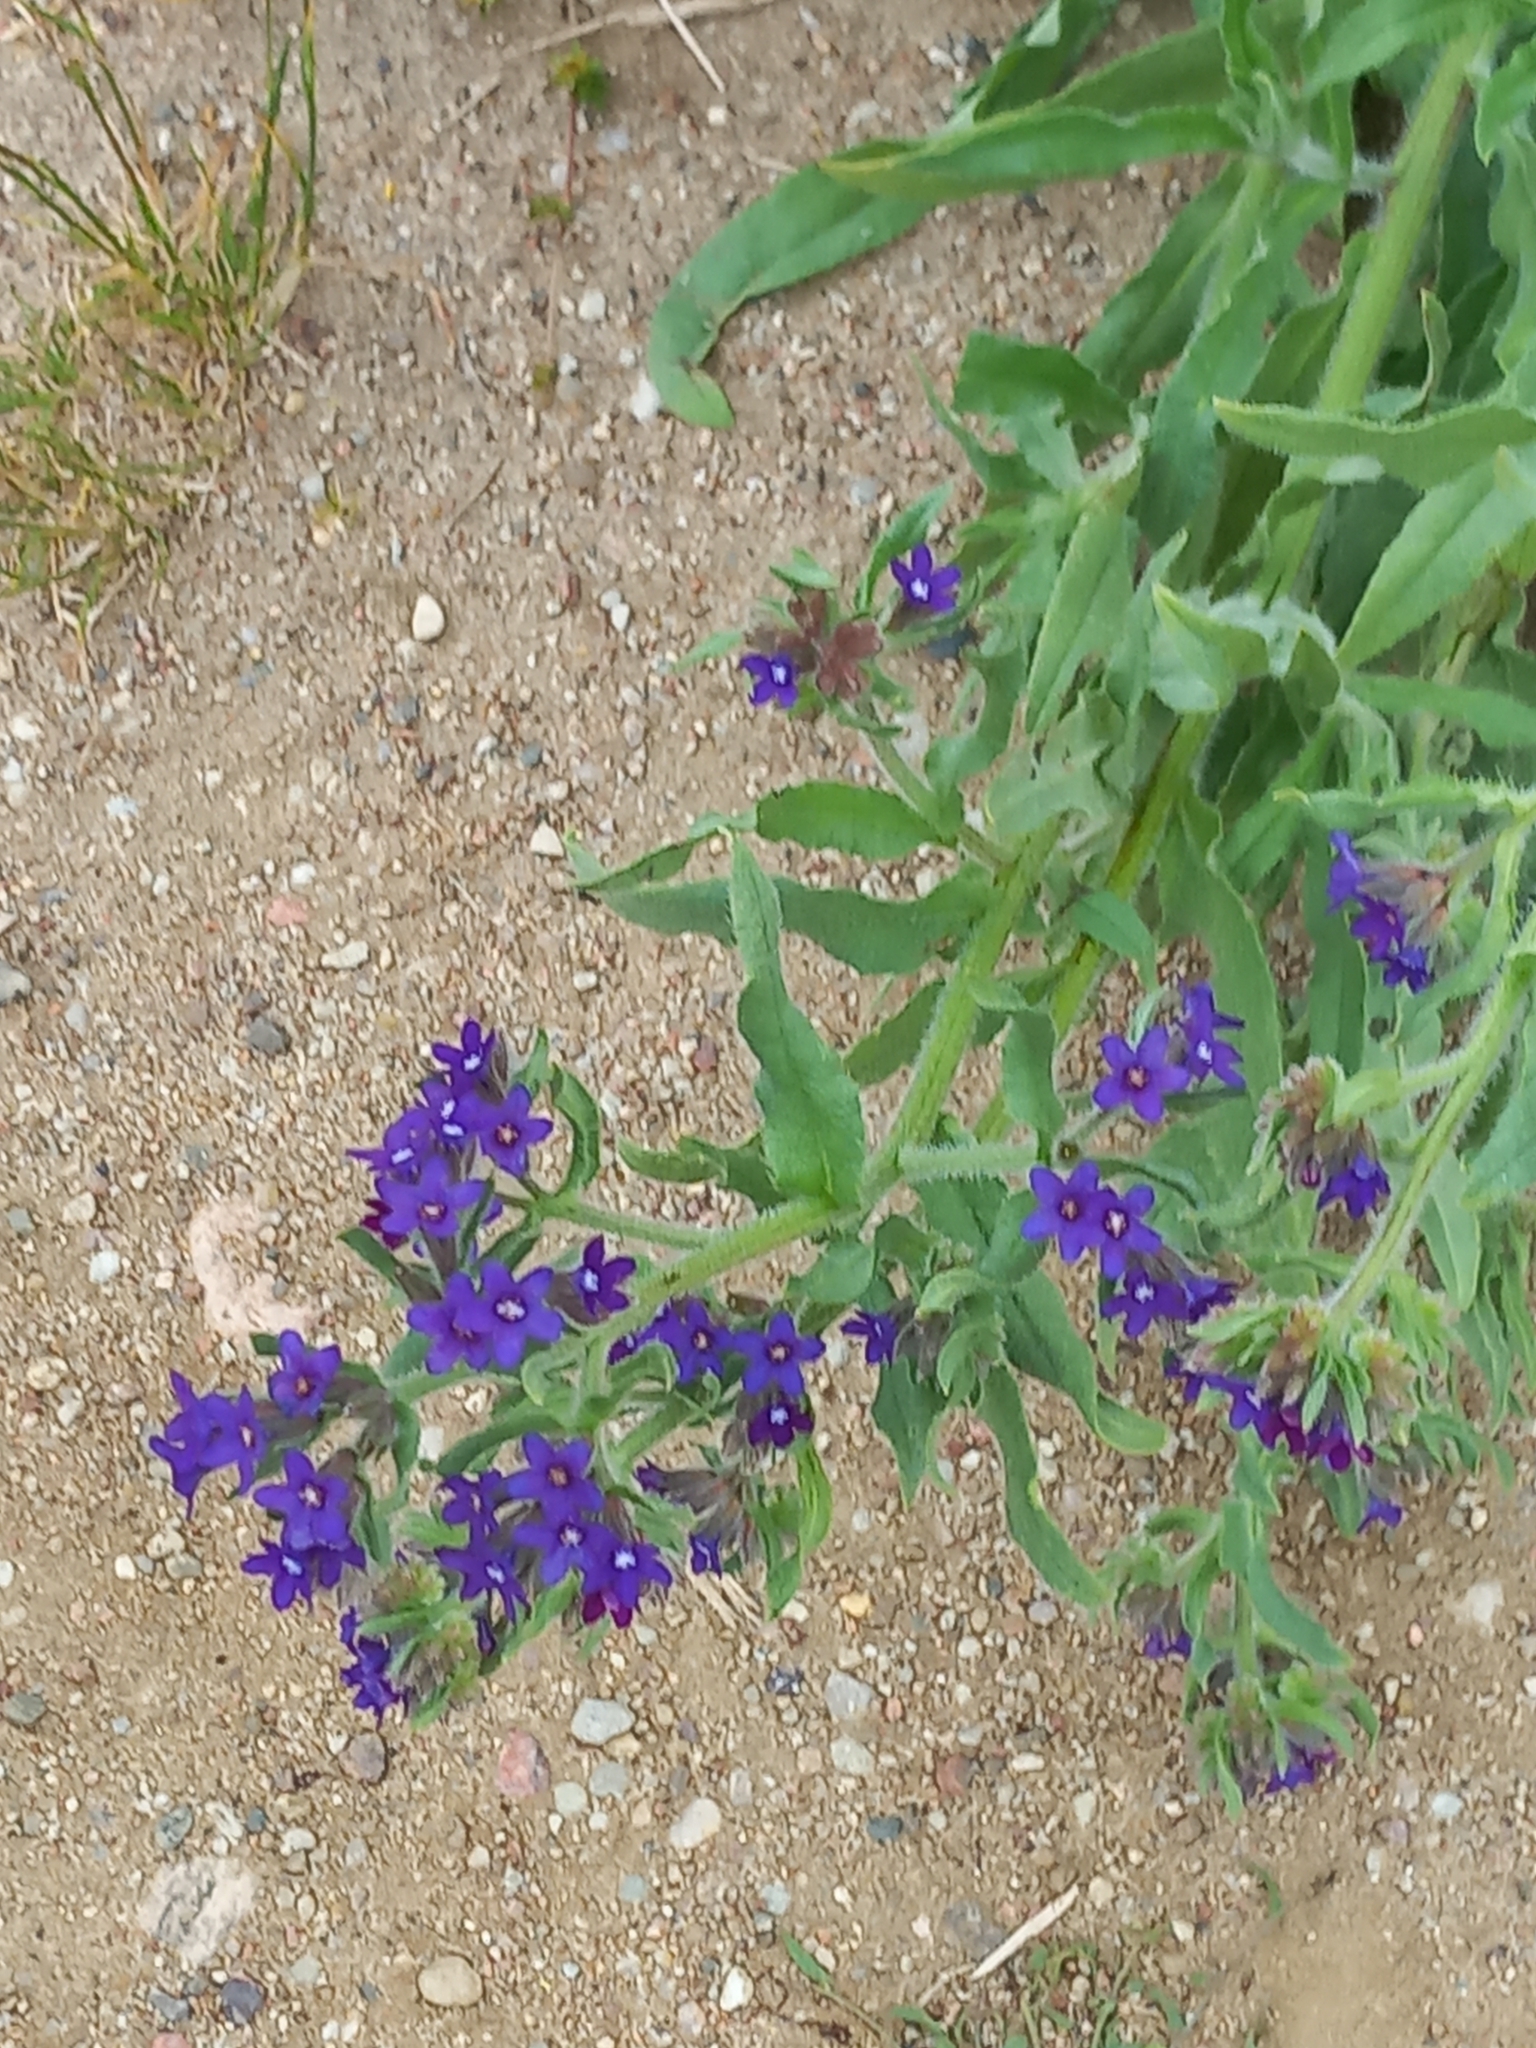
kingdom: Plantae
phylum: Tracheophyta
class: Magnoliopsida
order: Boraginales
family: Boraginaceae
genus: Anchusa
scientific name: Anchusa officinalis
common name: Alkanet
